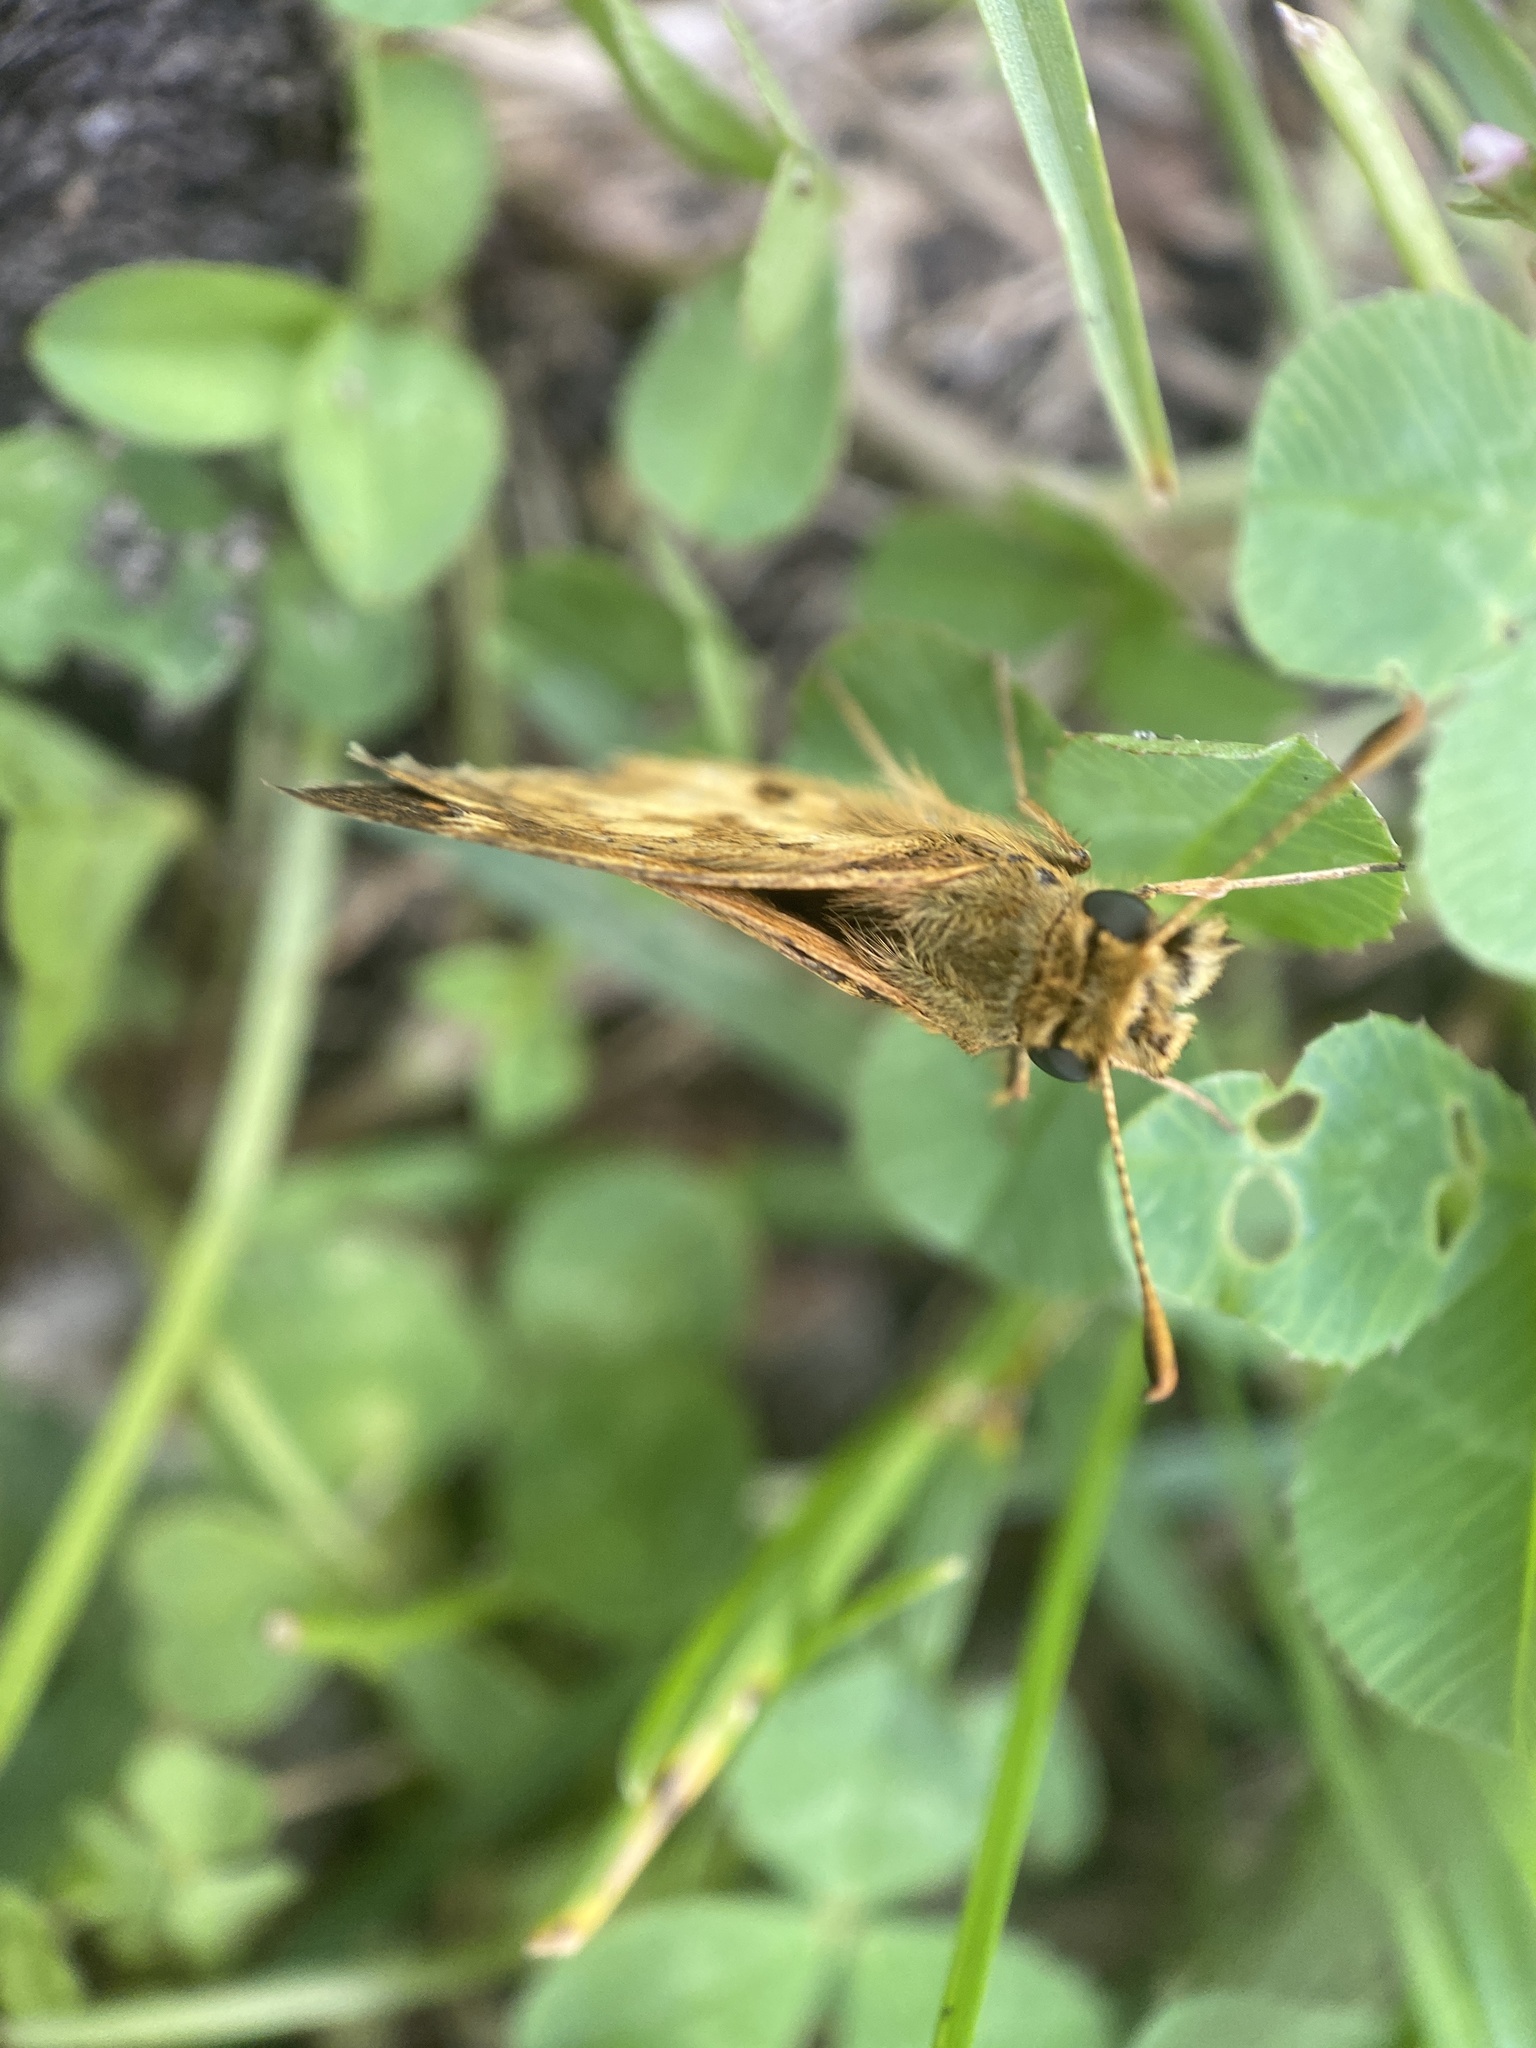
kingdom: Animalia
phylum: Arthropoda
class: Insecta
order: Lepidoptera
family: Hesperiidae
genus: Polites
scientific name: Polites coras
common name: Peck's skipper
